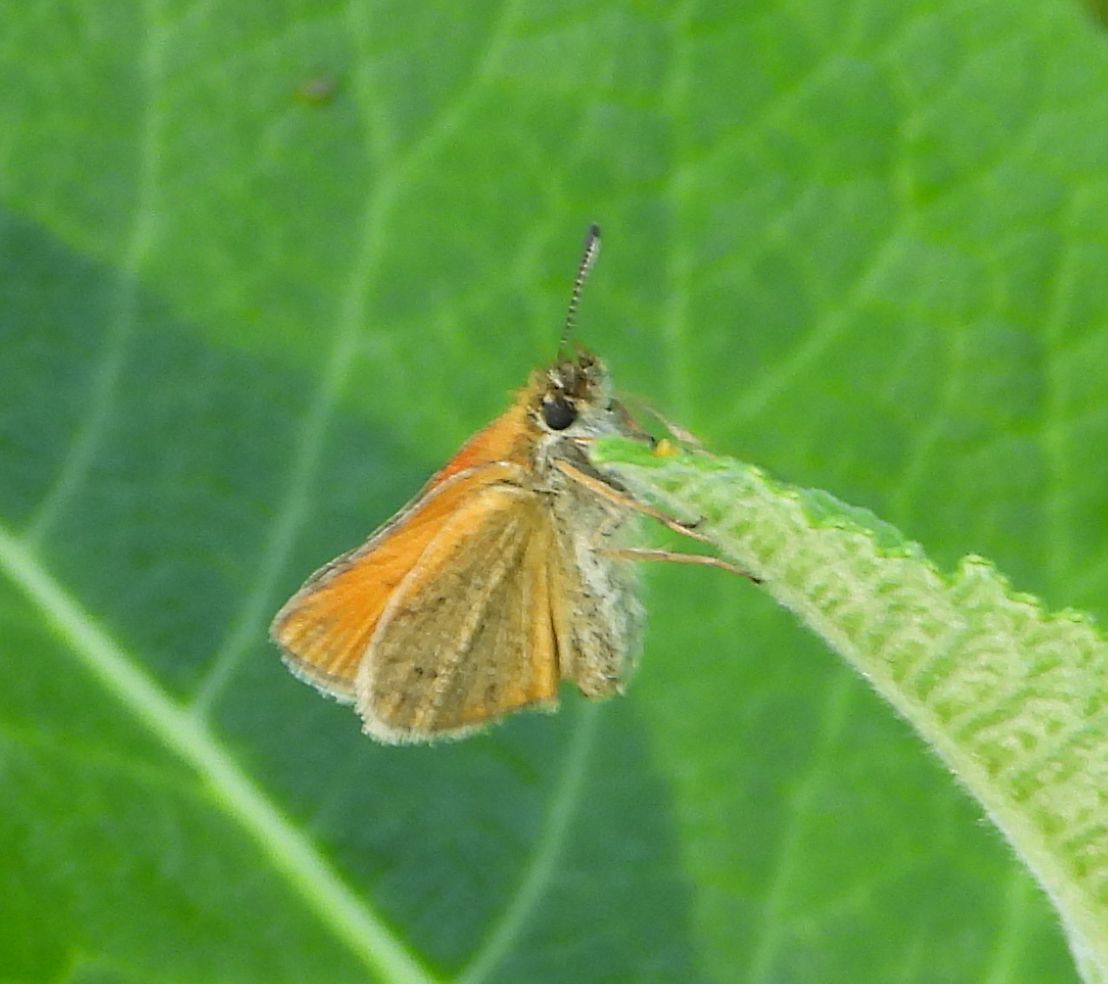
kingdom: Animalia
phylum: Arthropoda
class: Insecta
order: Lepidoptera
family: Hesperiidae
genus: Thymelicus
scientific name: Thymelicus lineola
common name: Essex skipper
